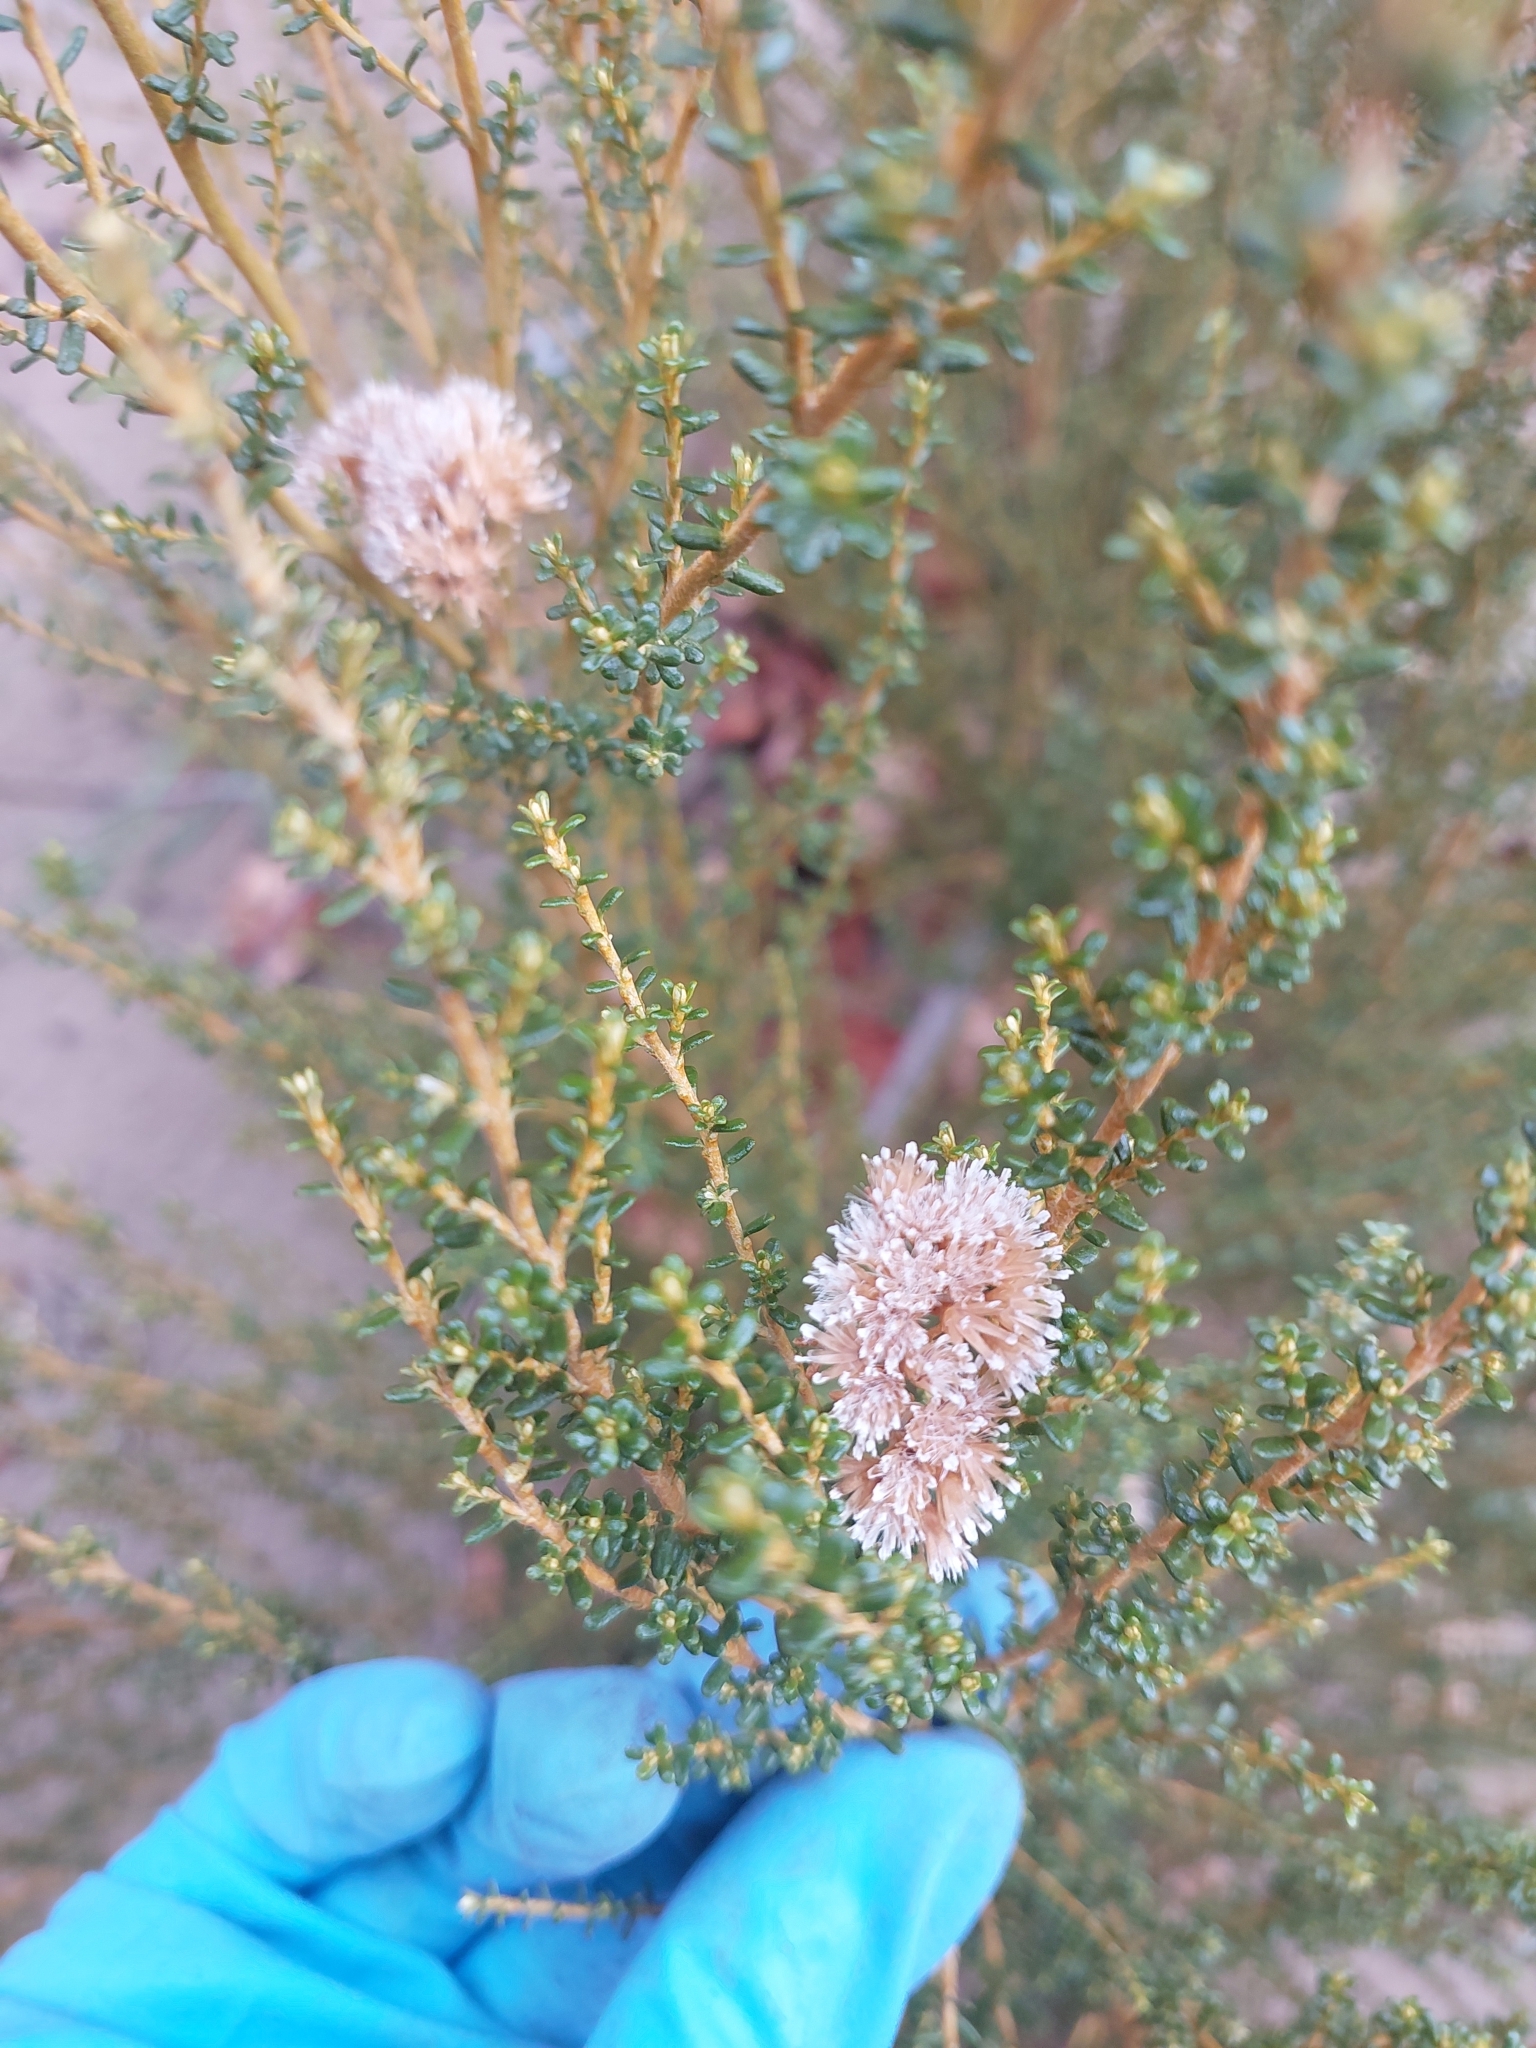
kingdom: Plantae
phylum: Tracheophyta
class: Magnoliopsida
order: Asterales
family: Asteraceae
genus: Ozothamnus
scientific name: Ozothamnus leptophyllus
